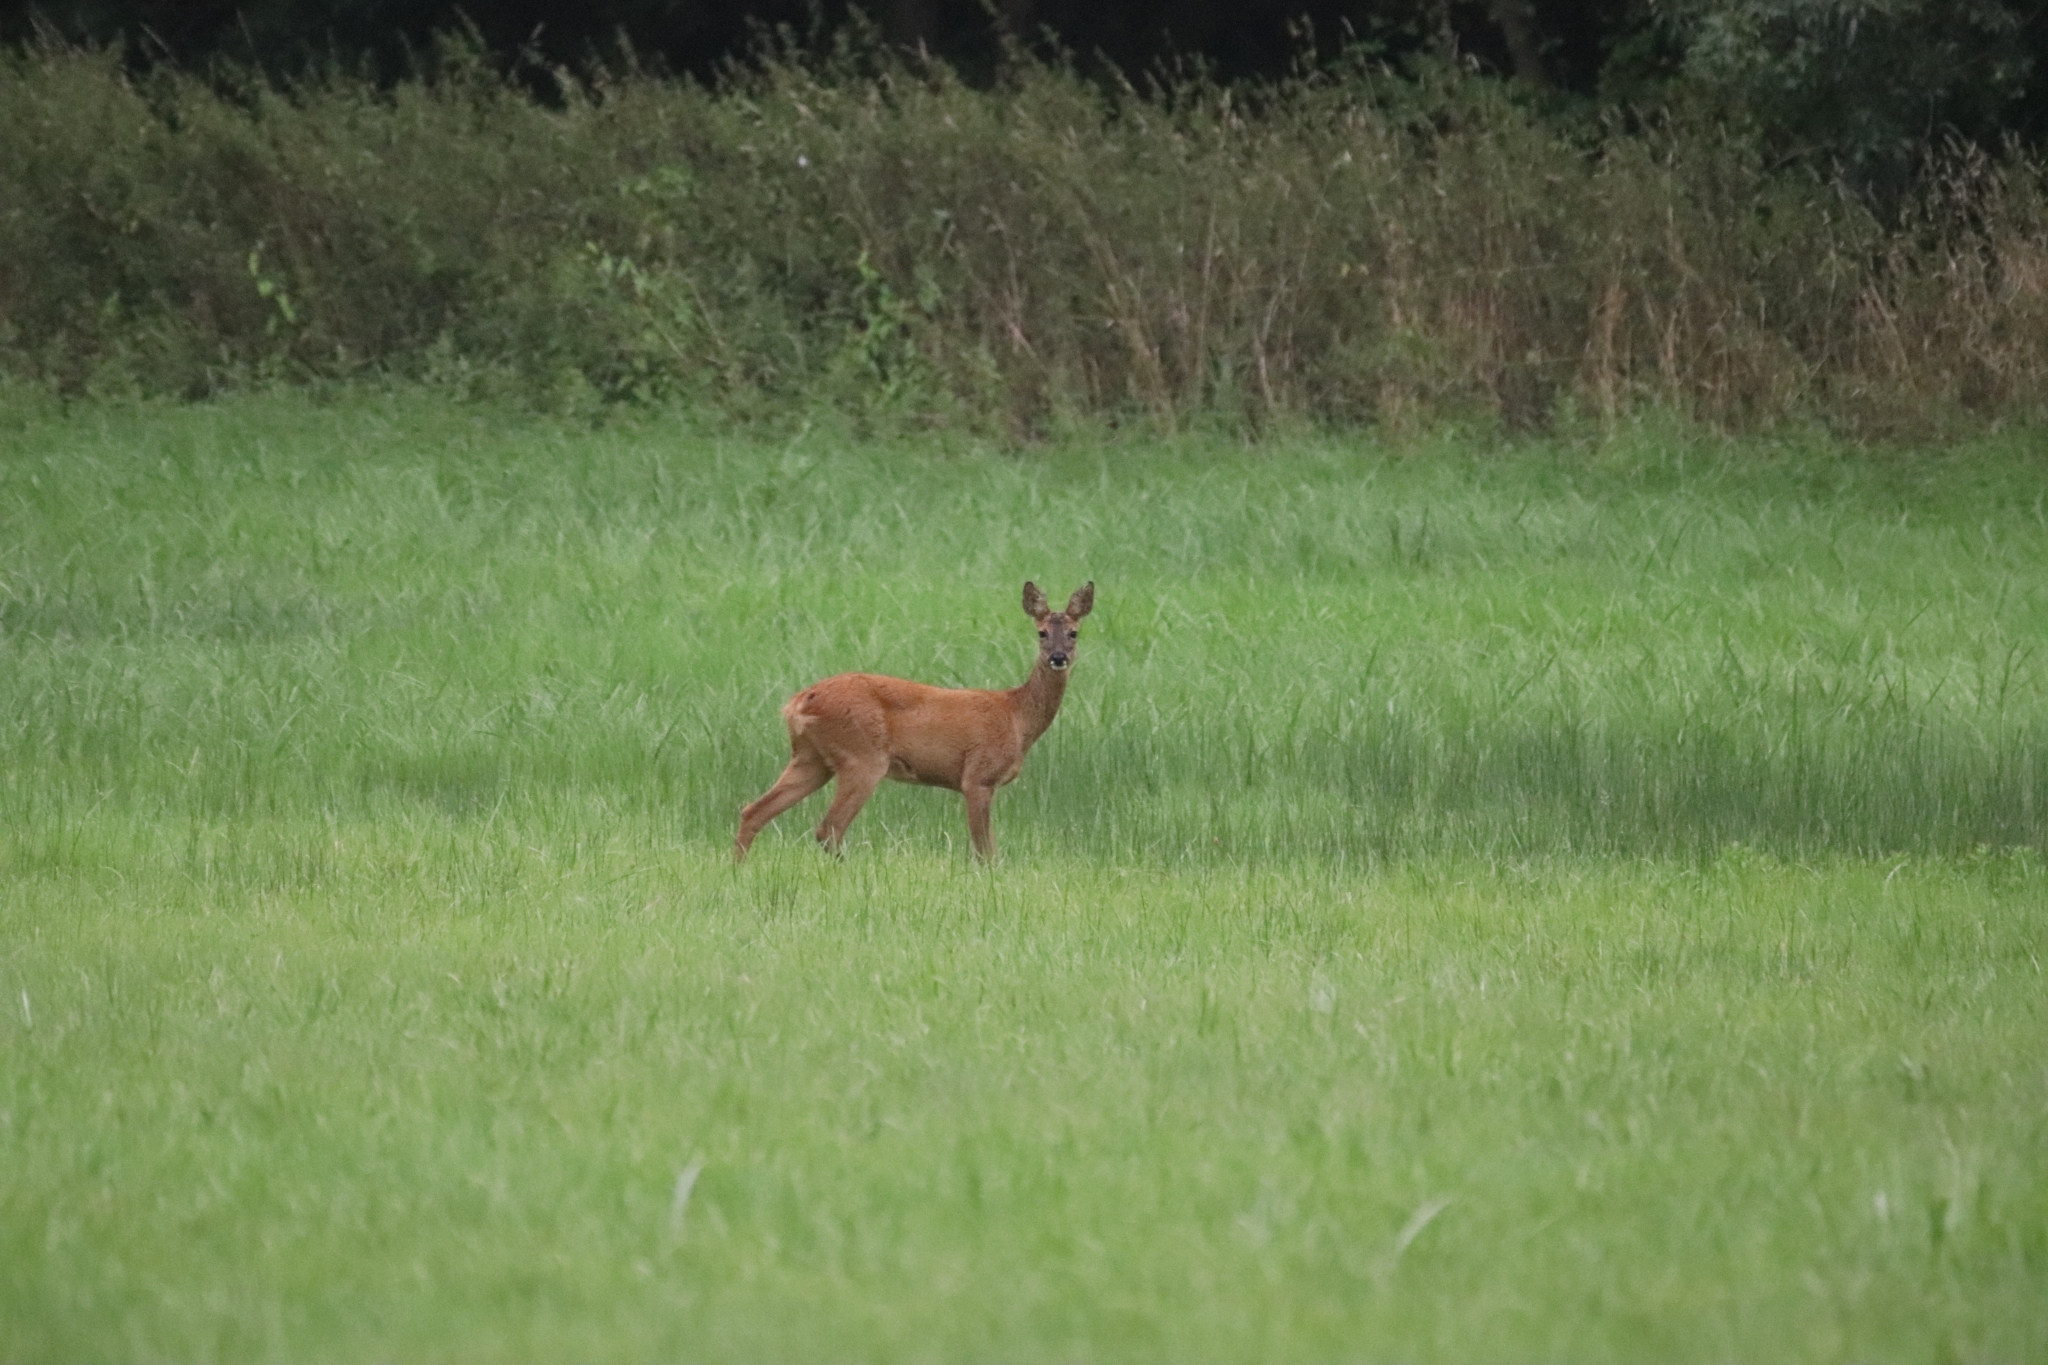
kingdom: Animalia
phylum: Chordata
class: Mammalia
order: Artiodactyla
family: Cervidae
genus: Capreolus
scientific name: Capreolus capreolus
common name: Western roe deer
